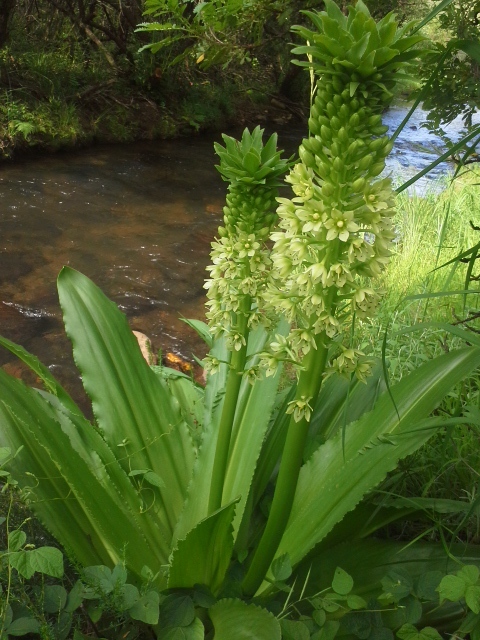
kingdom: Plantae
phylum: Tracheophyta
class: Liliopsida
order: Asparagales
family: Asparagaceae
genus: Eucomis
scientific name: Eucomis pallidiflora
